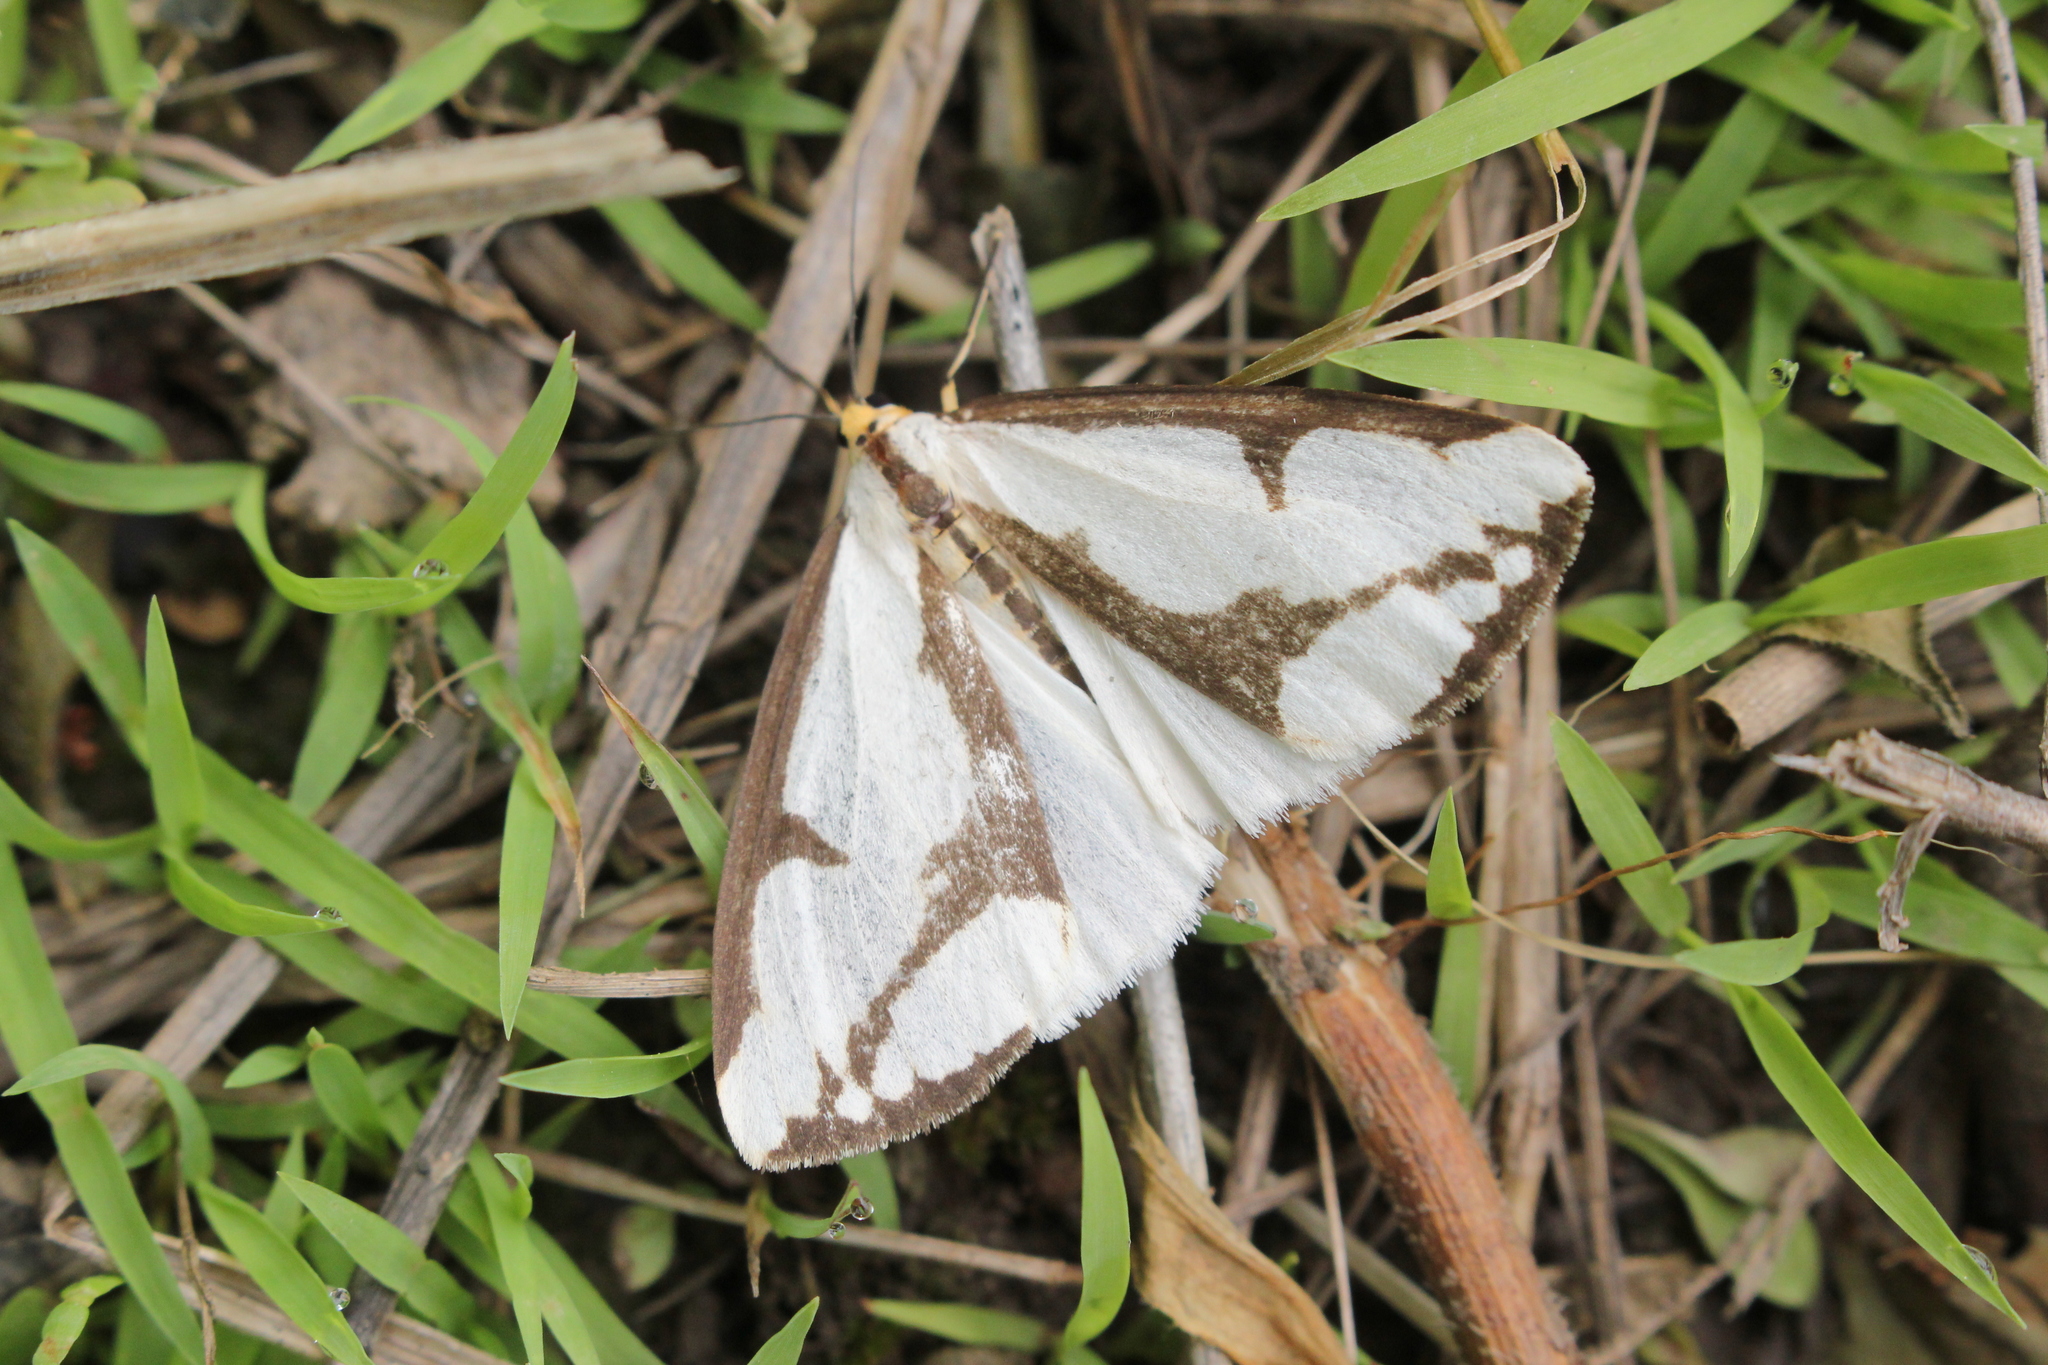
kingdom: Animalia
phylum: Arthropoda
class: Insecta
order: Lepidoptera
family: Erebidae
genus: Haploa
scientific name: Haploa lecontei
